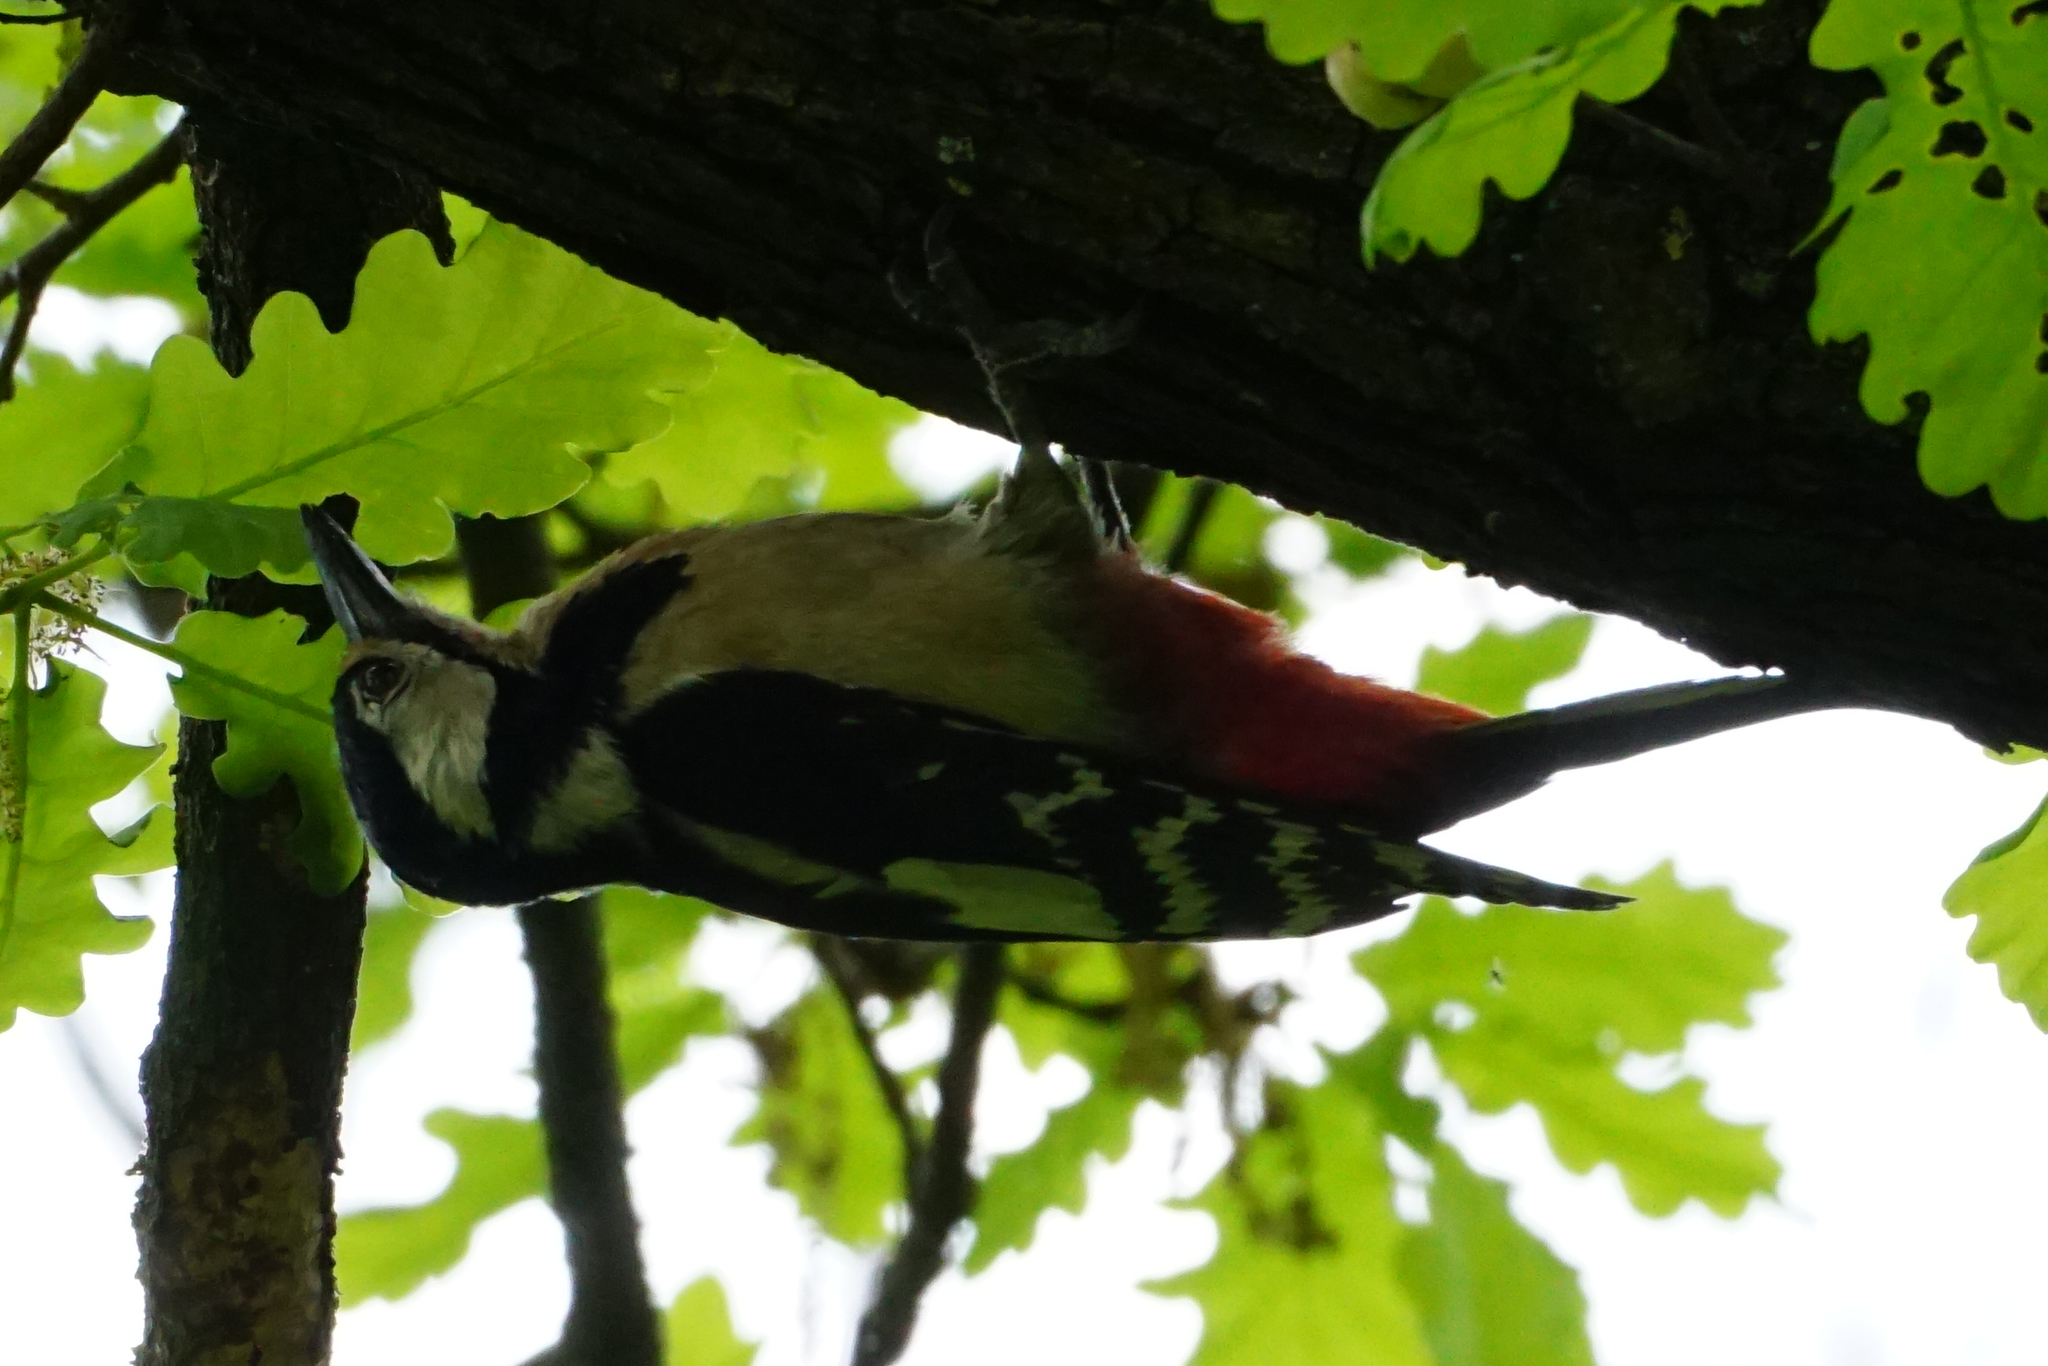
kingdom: Animalia
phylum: Chordata
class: Aves
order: Piciformes
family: Picidae
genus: Dendrocopos
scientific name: Dendrocopos major
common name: Great spotted woodpecker
